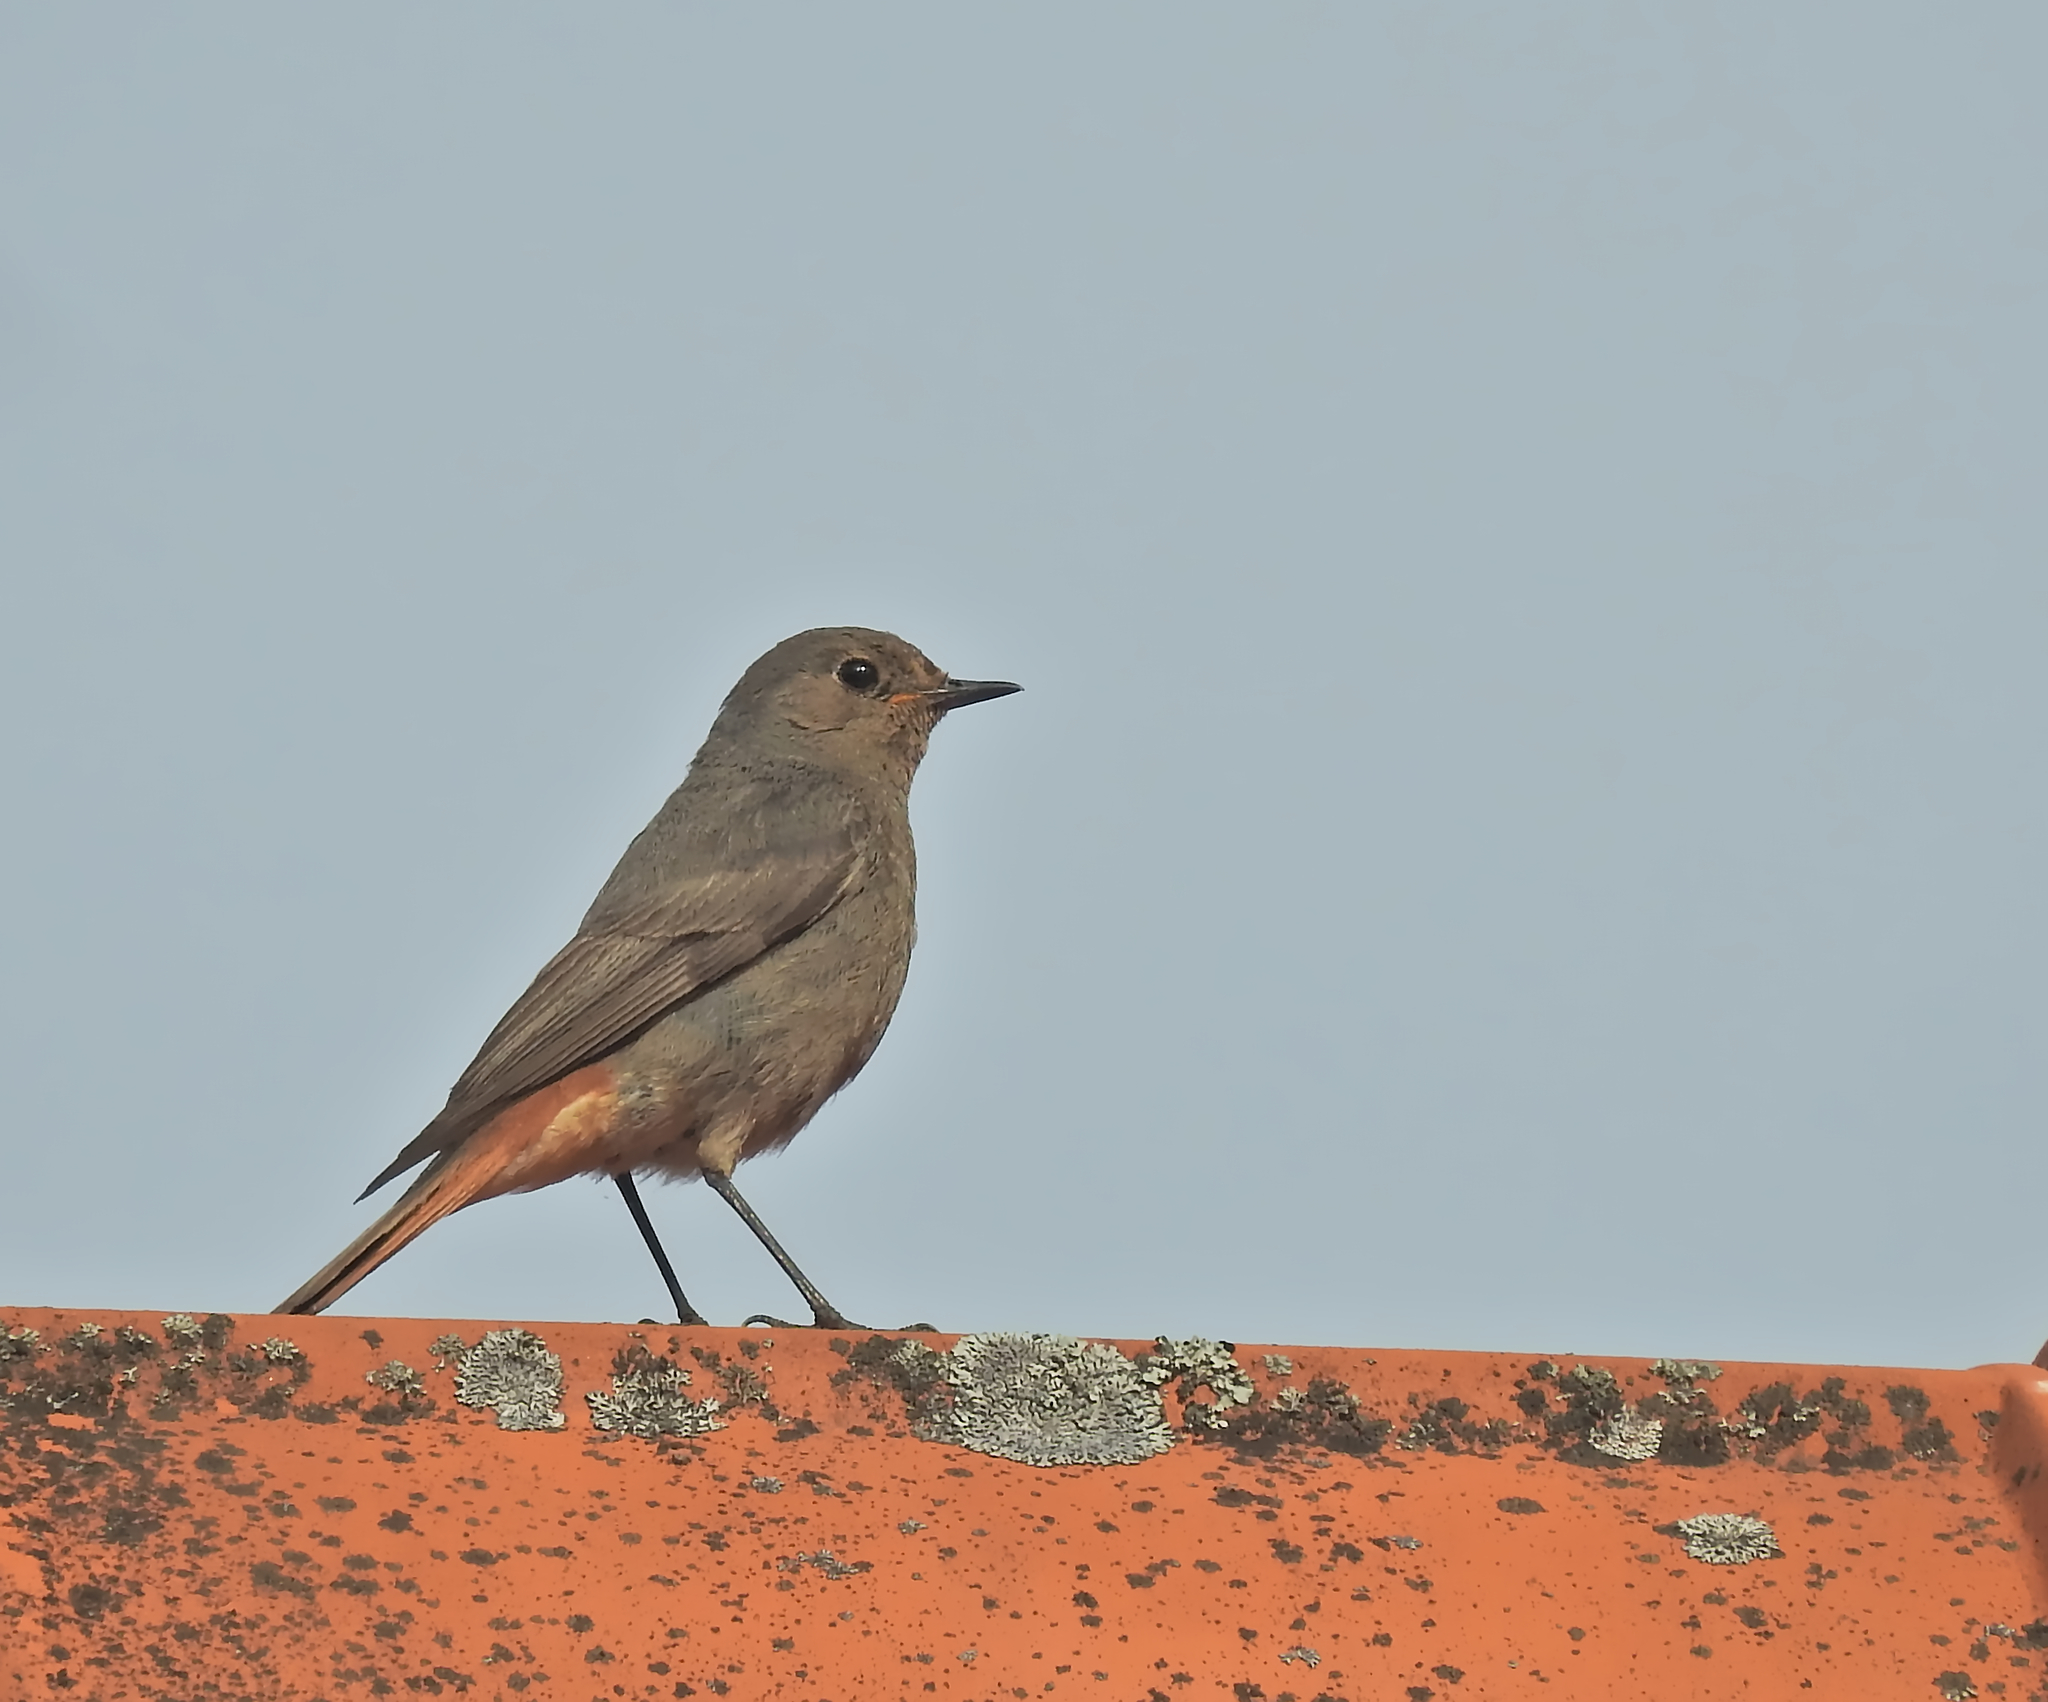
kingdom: Animalia
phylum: Chordata
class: Aves
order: Passeriformes
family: Muscicapidae
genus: Phoenicurus
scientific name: Phoenicurus ochruros
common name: Black redstart
